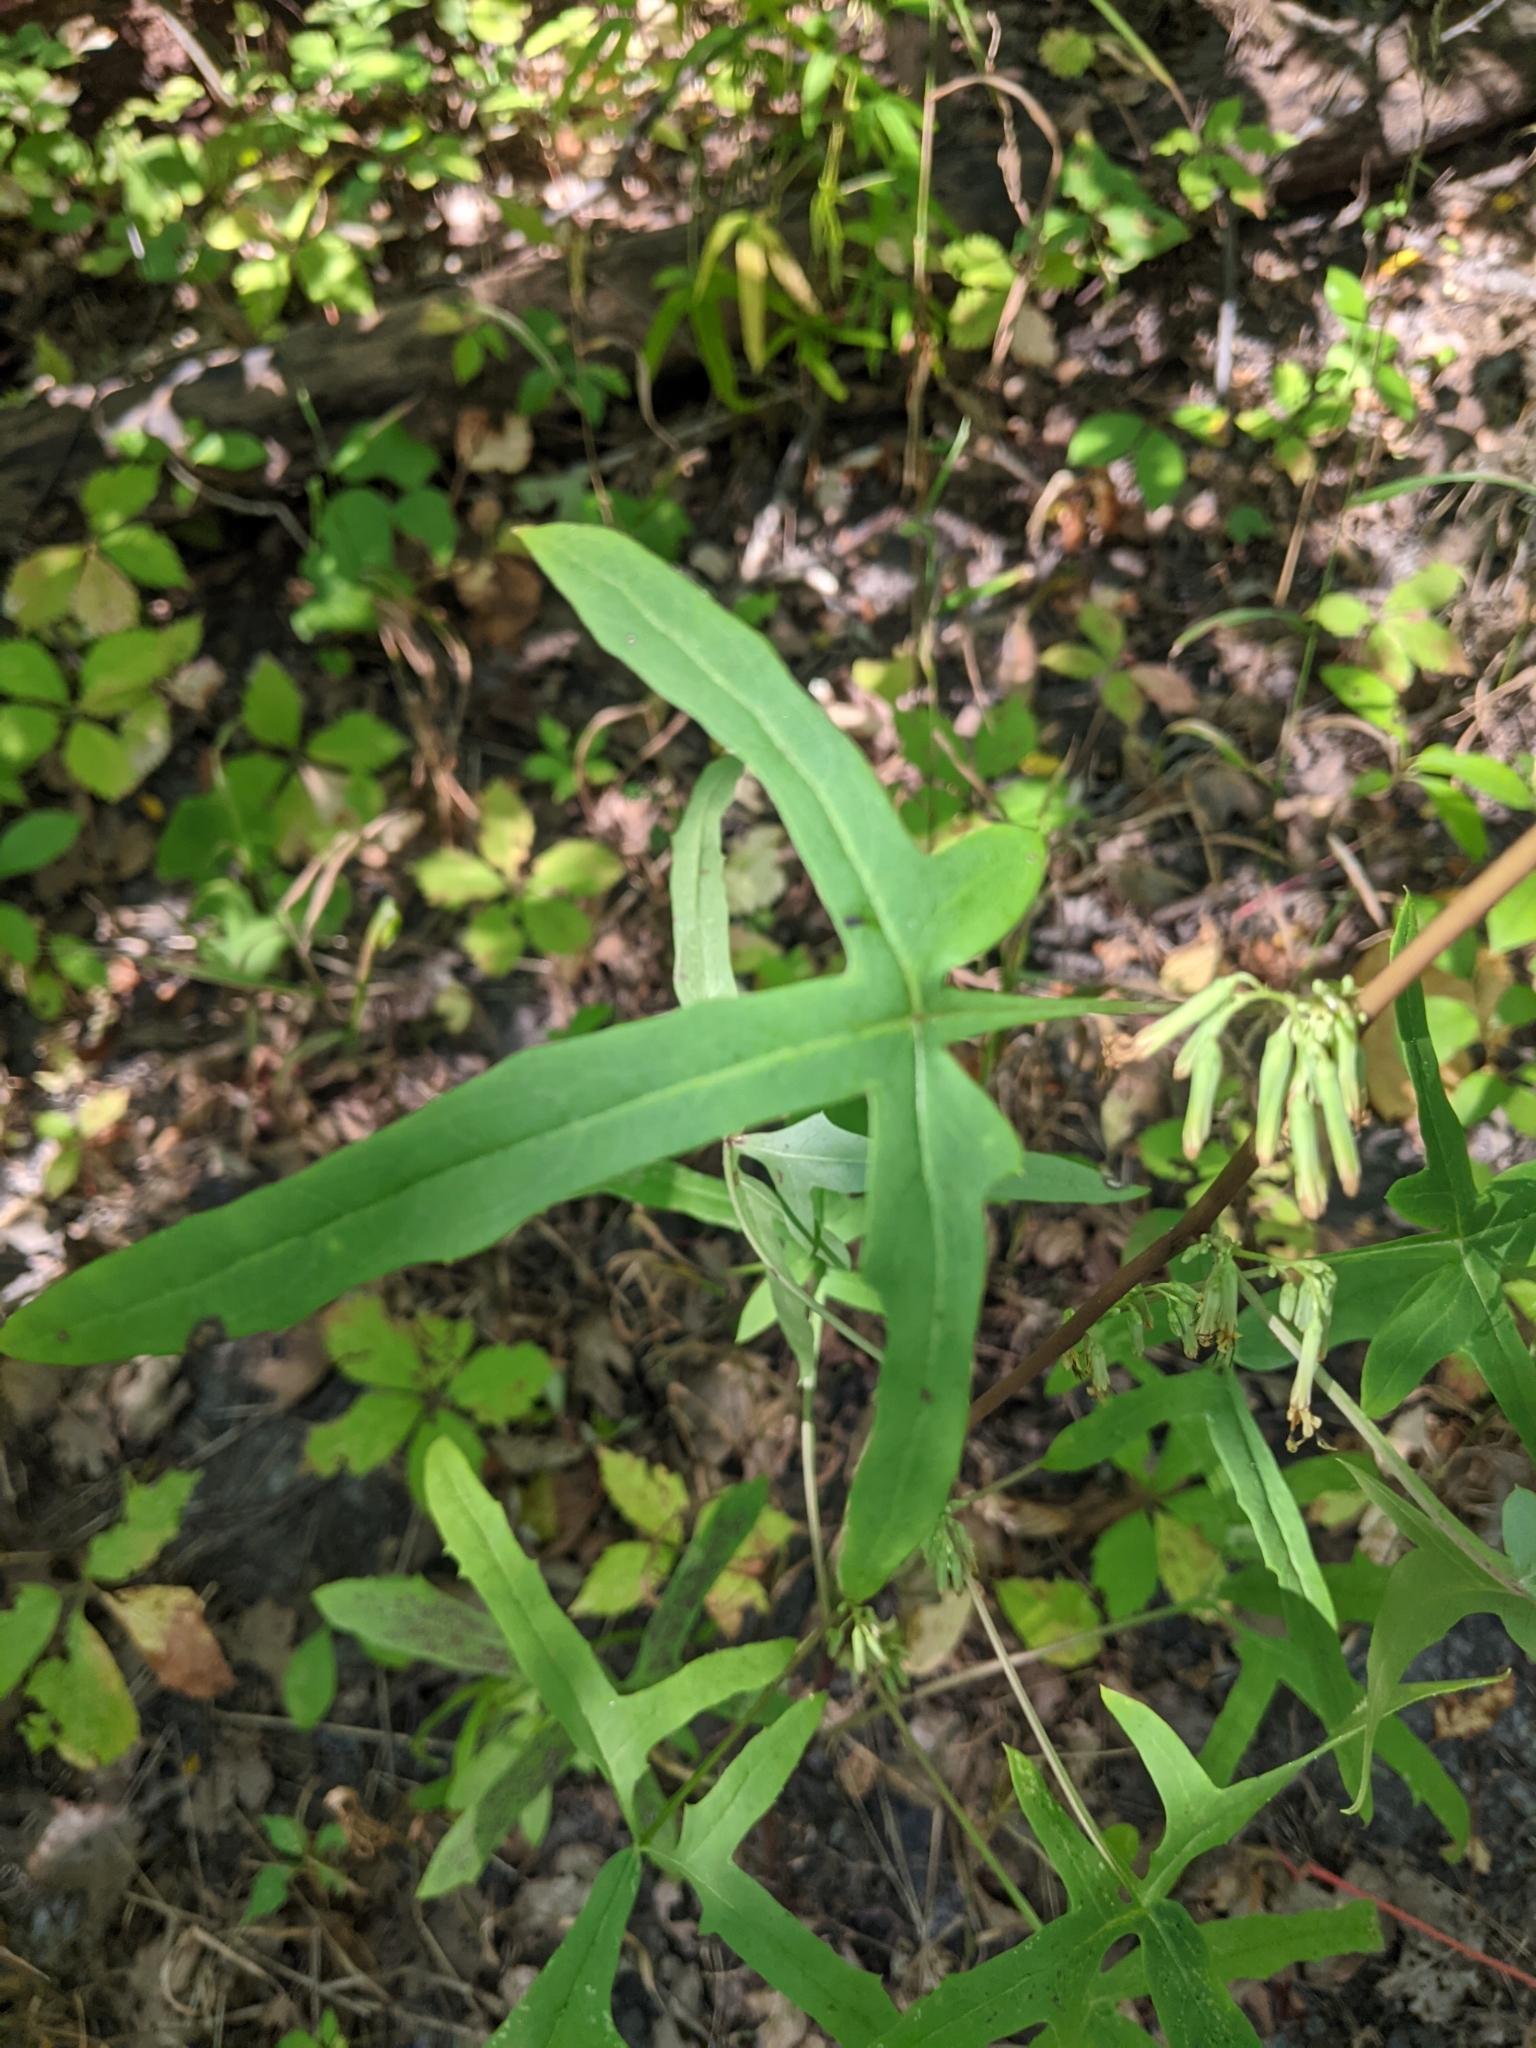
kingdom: Plantae
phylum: Tracheophyta
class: Magnoliopsida
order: Asterales
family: Asteraceae
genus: Nabalus
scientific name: Nabalus altissima
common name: Tall rattlesnakeroot
